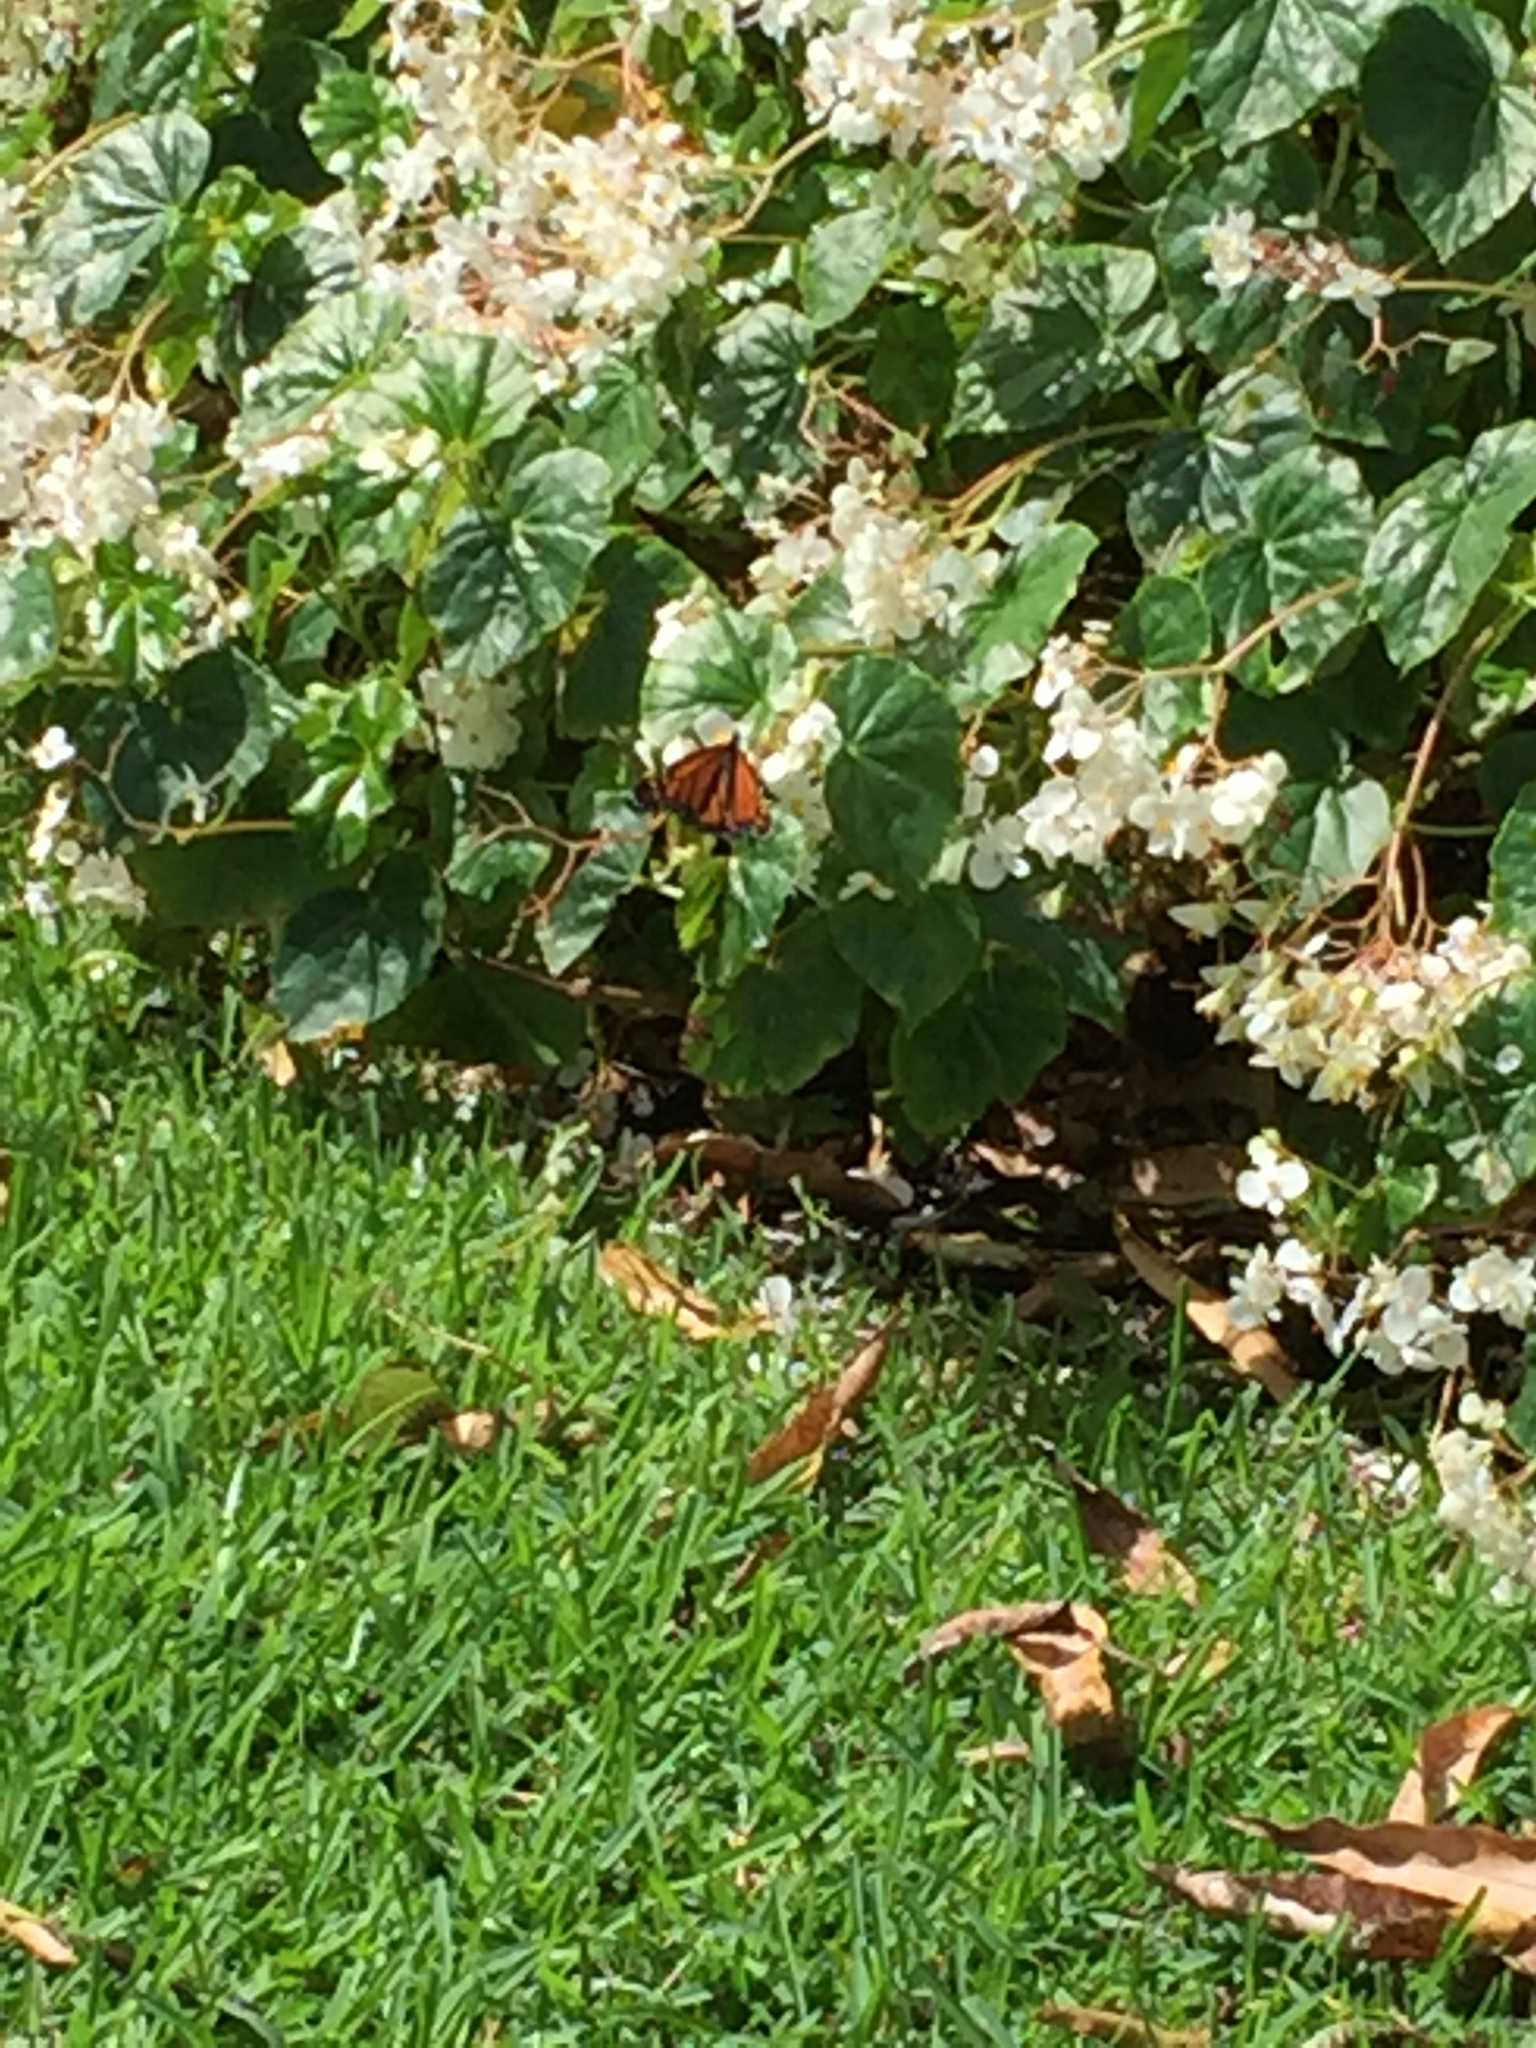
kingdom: Animalia
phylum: Arthropoda
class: Insecta
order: Lepidoptera
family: Nymphalidae
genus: Danaus
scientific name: Danaus plexippus
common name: Monarch
